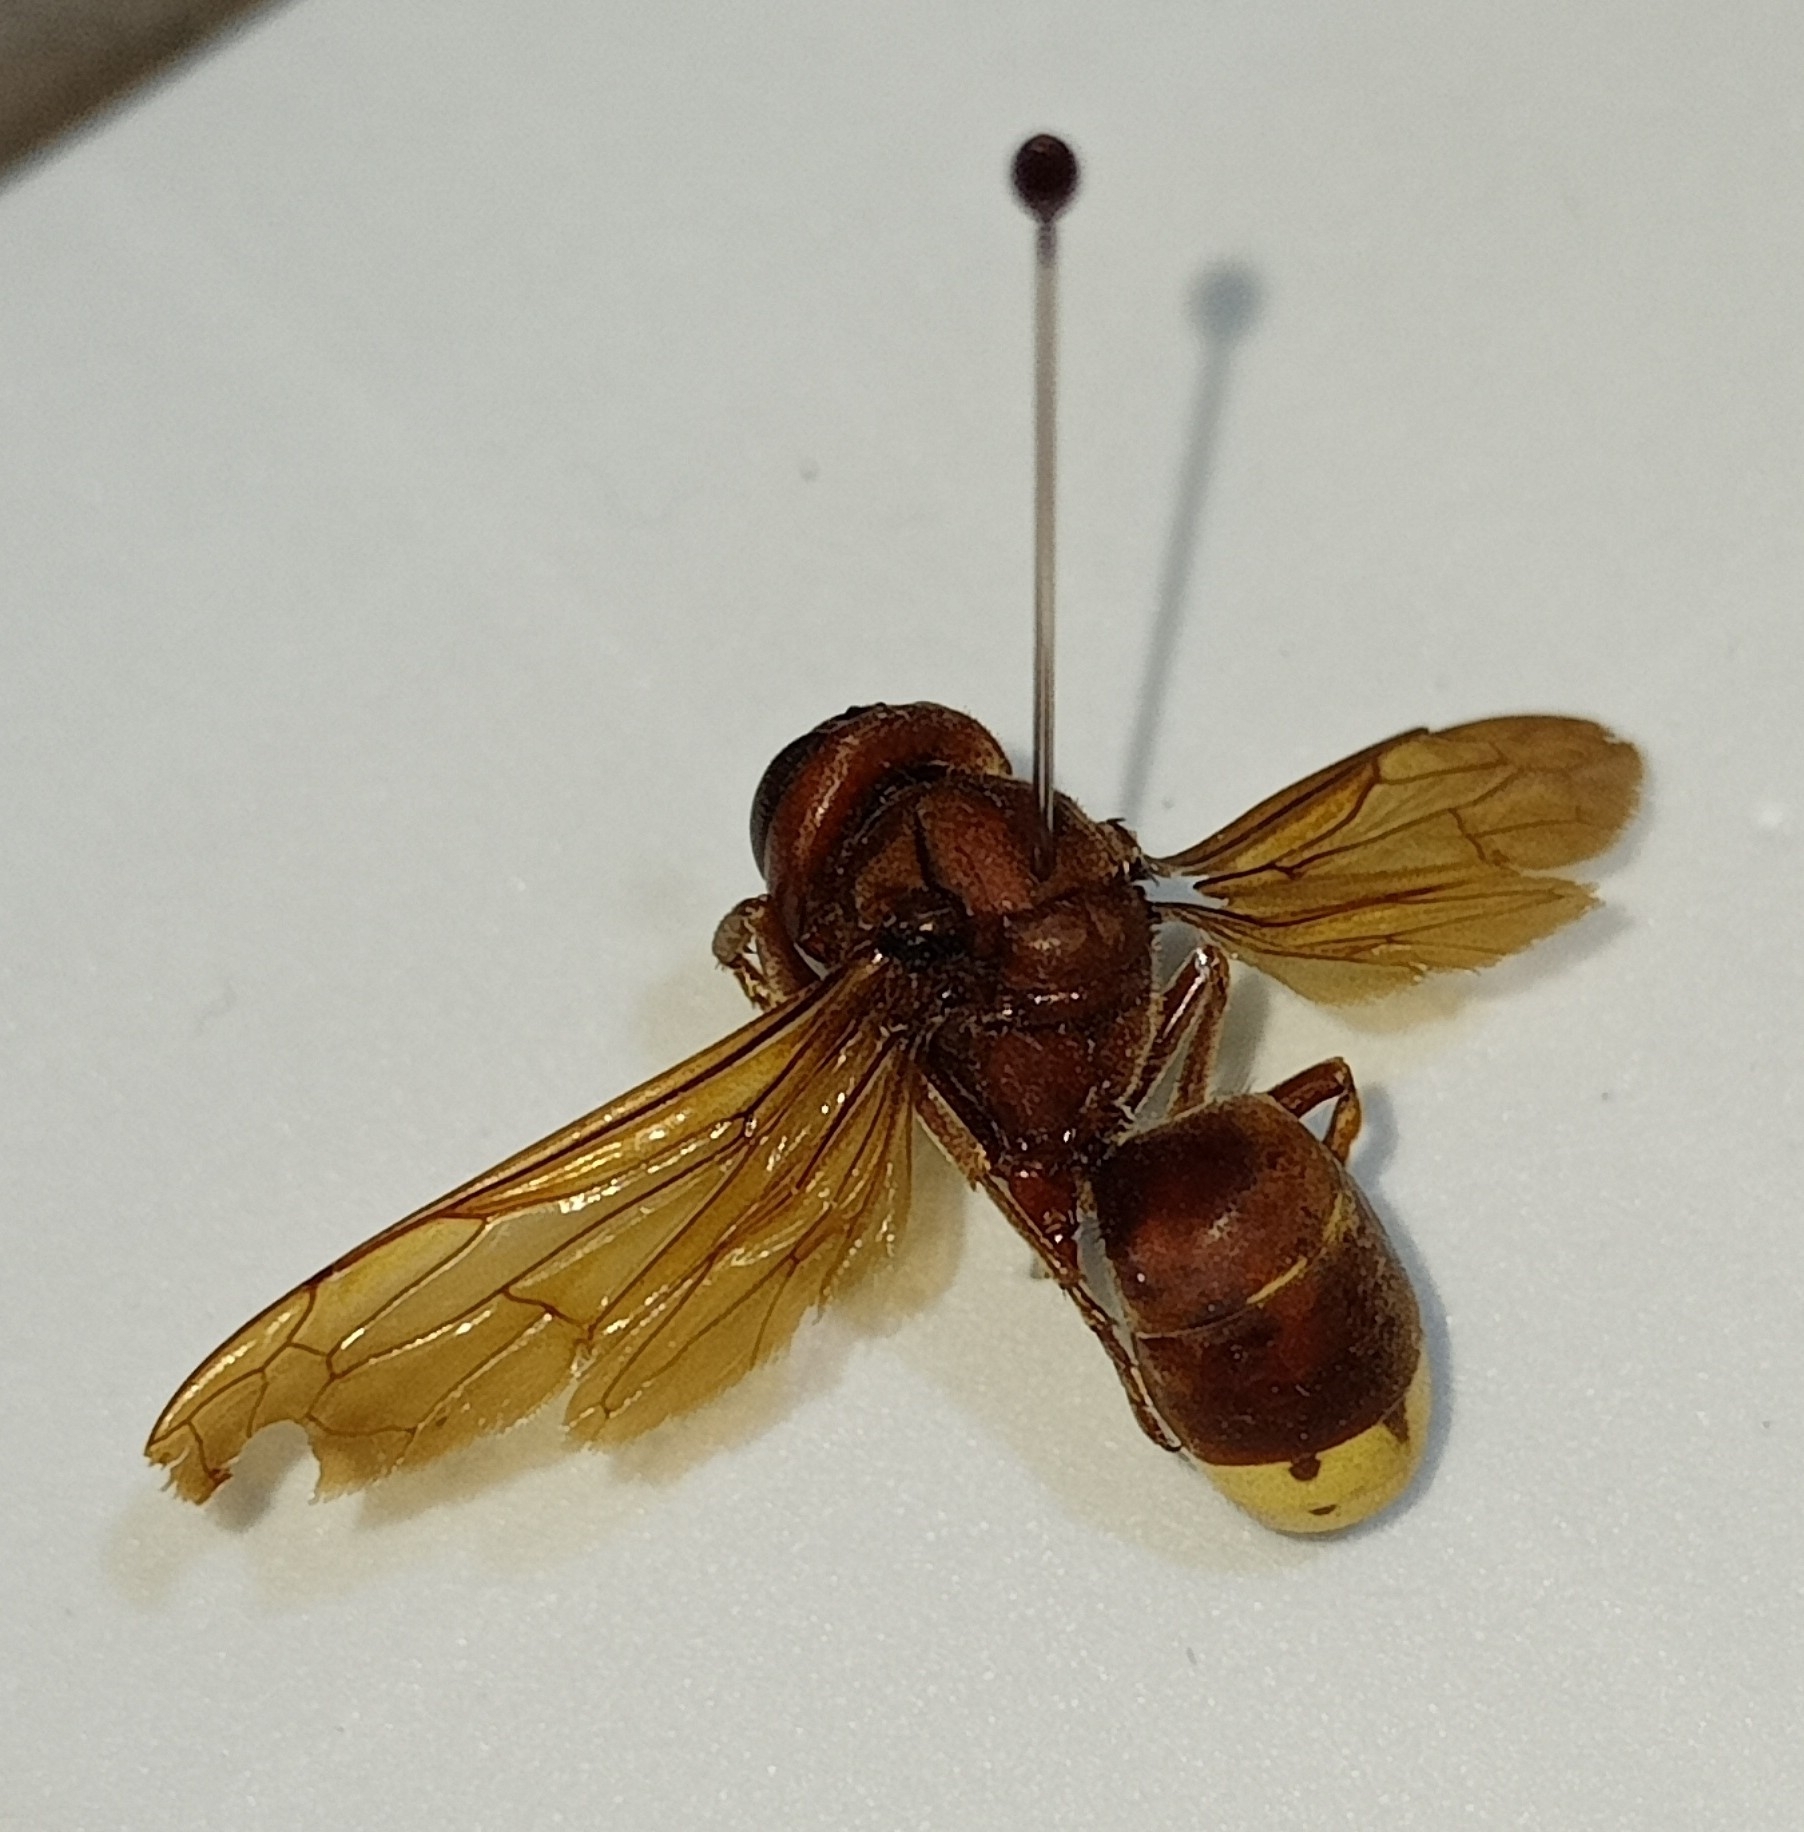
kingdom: Animalia
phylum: Arthropoda
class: Insecta
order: Hymenoptera
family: Vespidae
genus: Vespa
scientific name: Vespa orientalis
